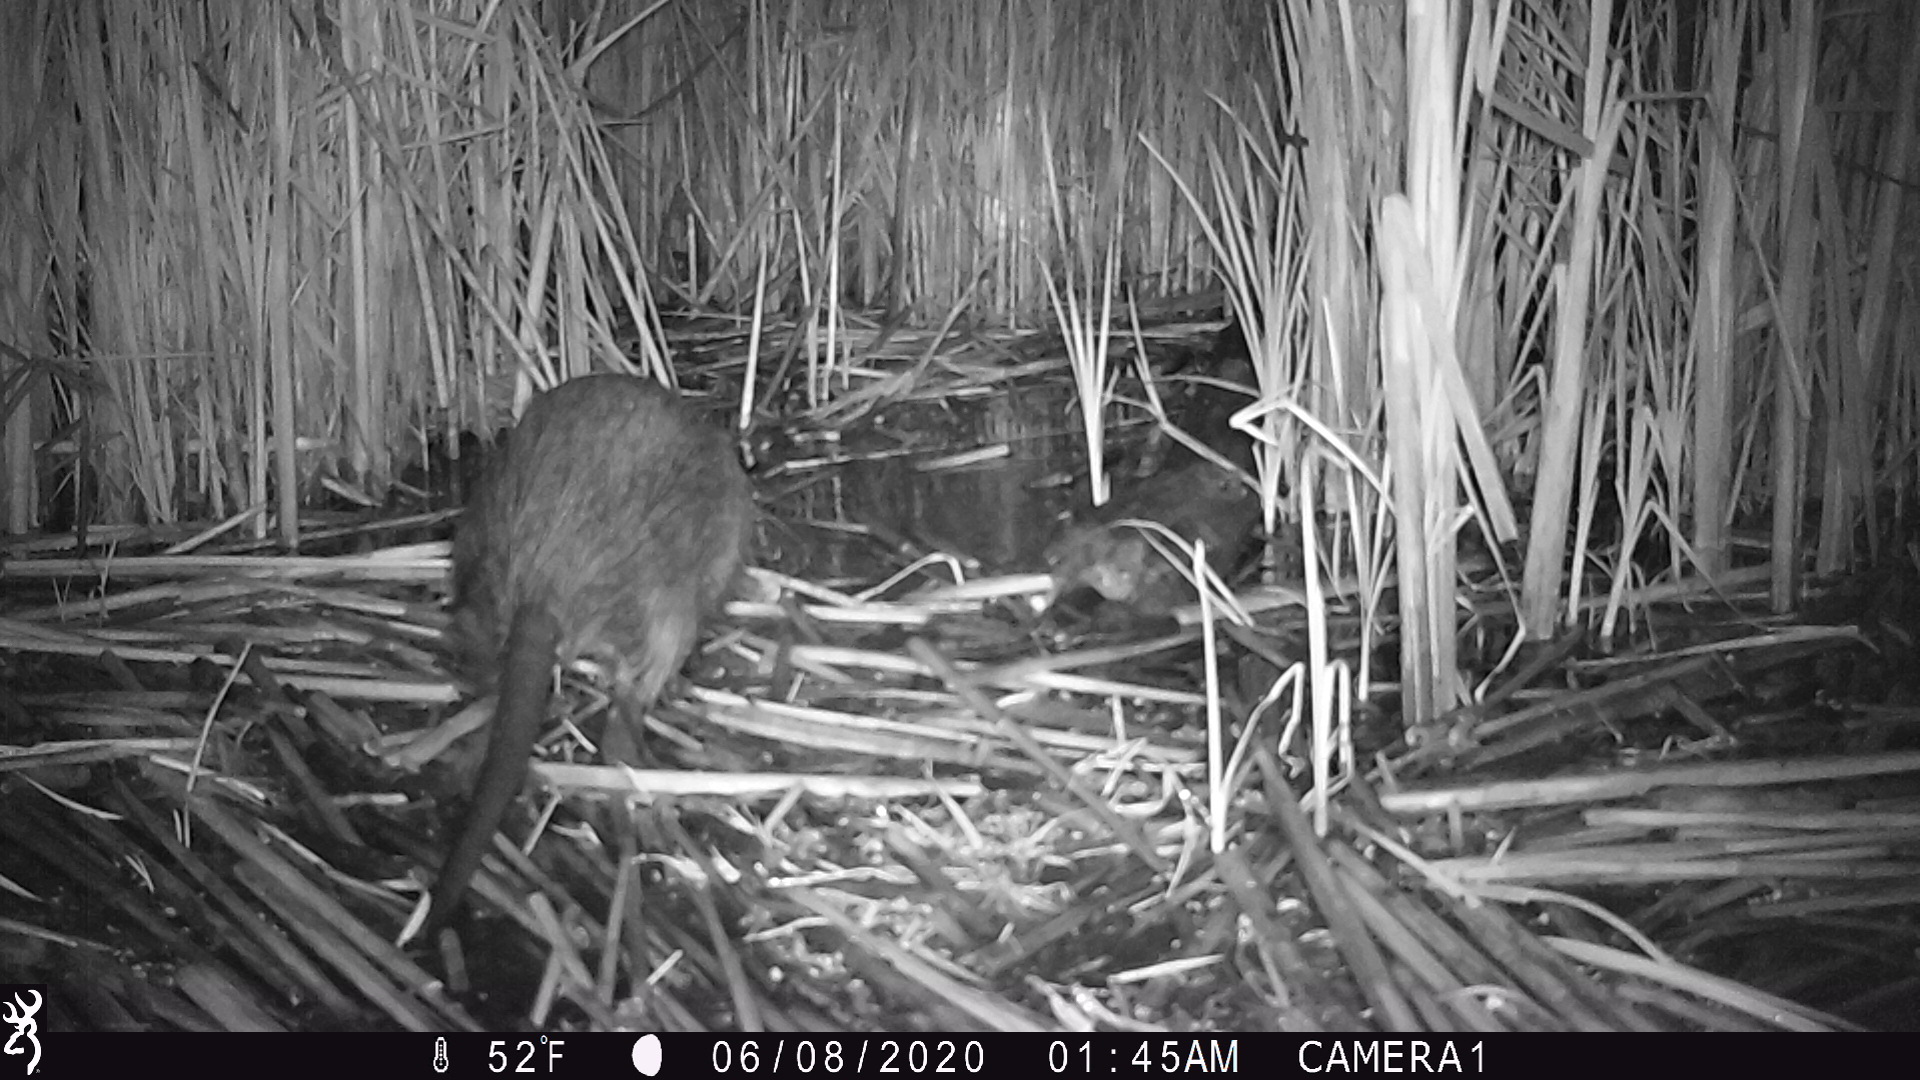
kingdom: Animalia
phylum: Chordata
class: Mammalia
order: Rodentia
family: Myocastoridae
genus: Myocastor
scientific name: Myocastor coypus
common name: Coypu
